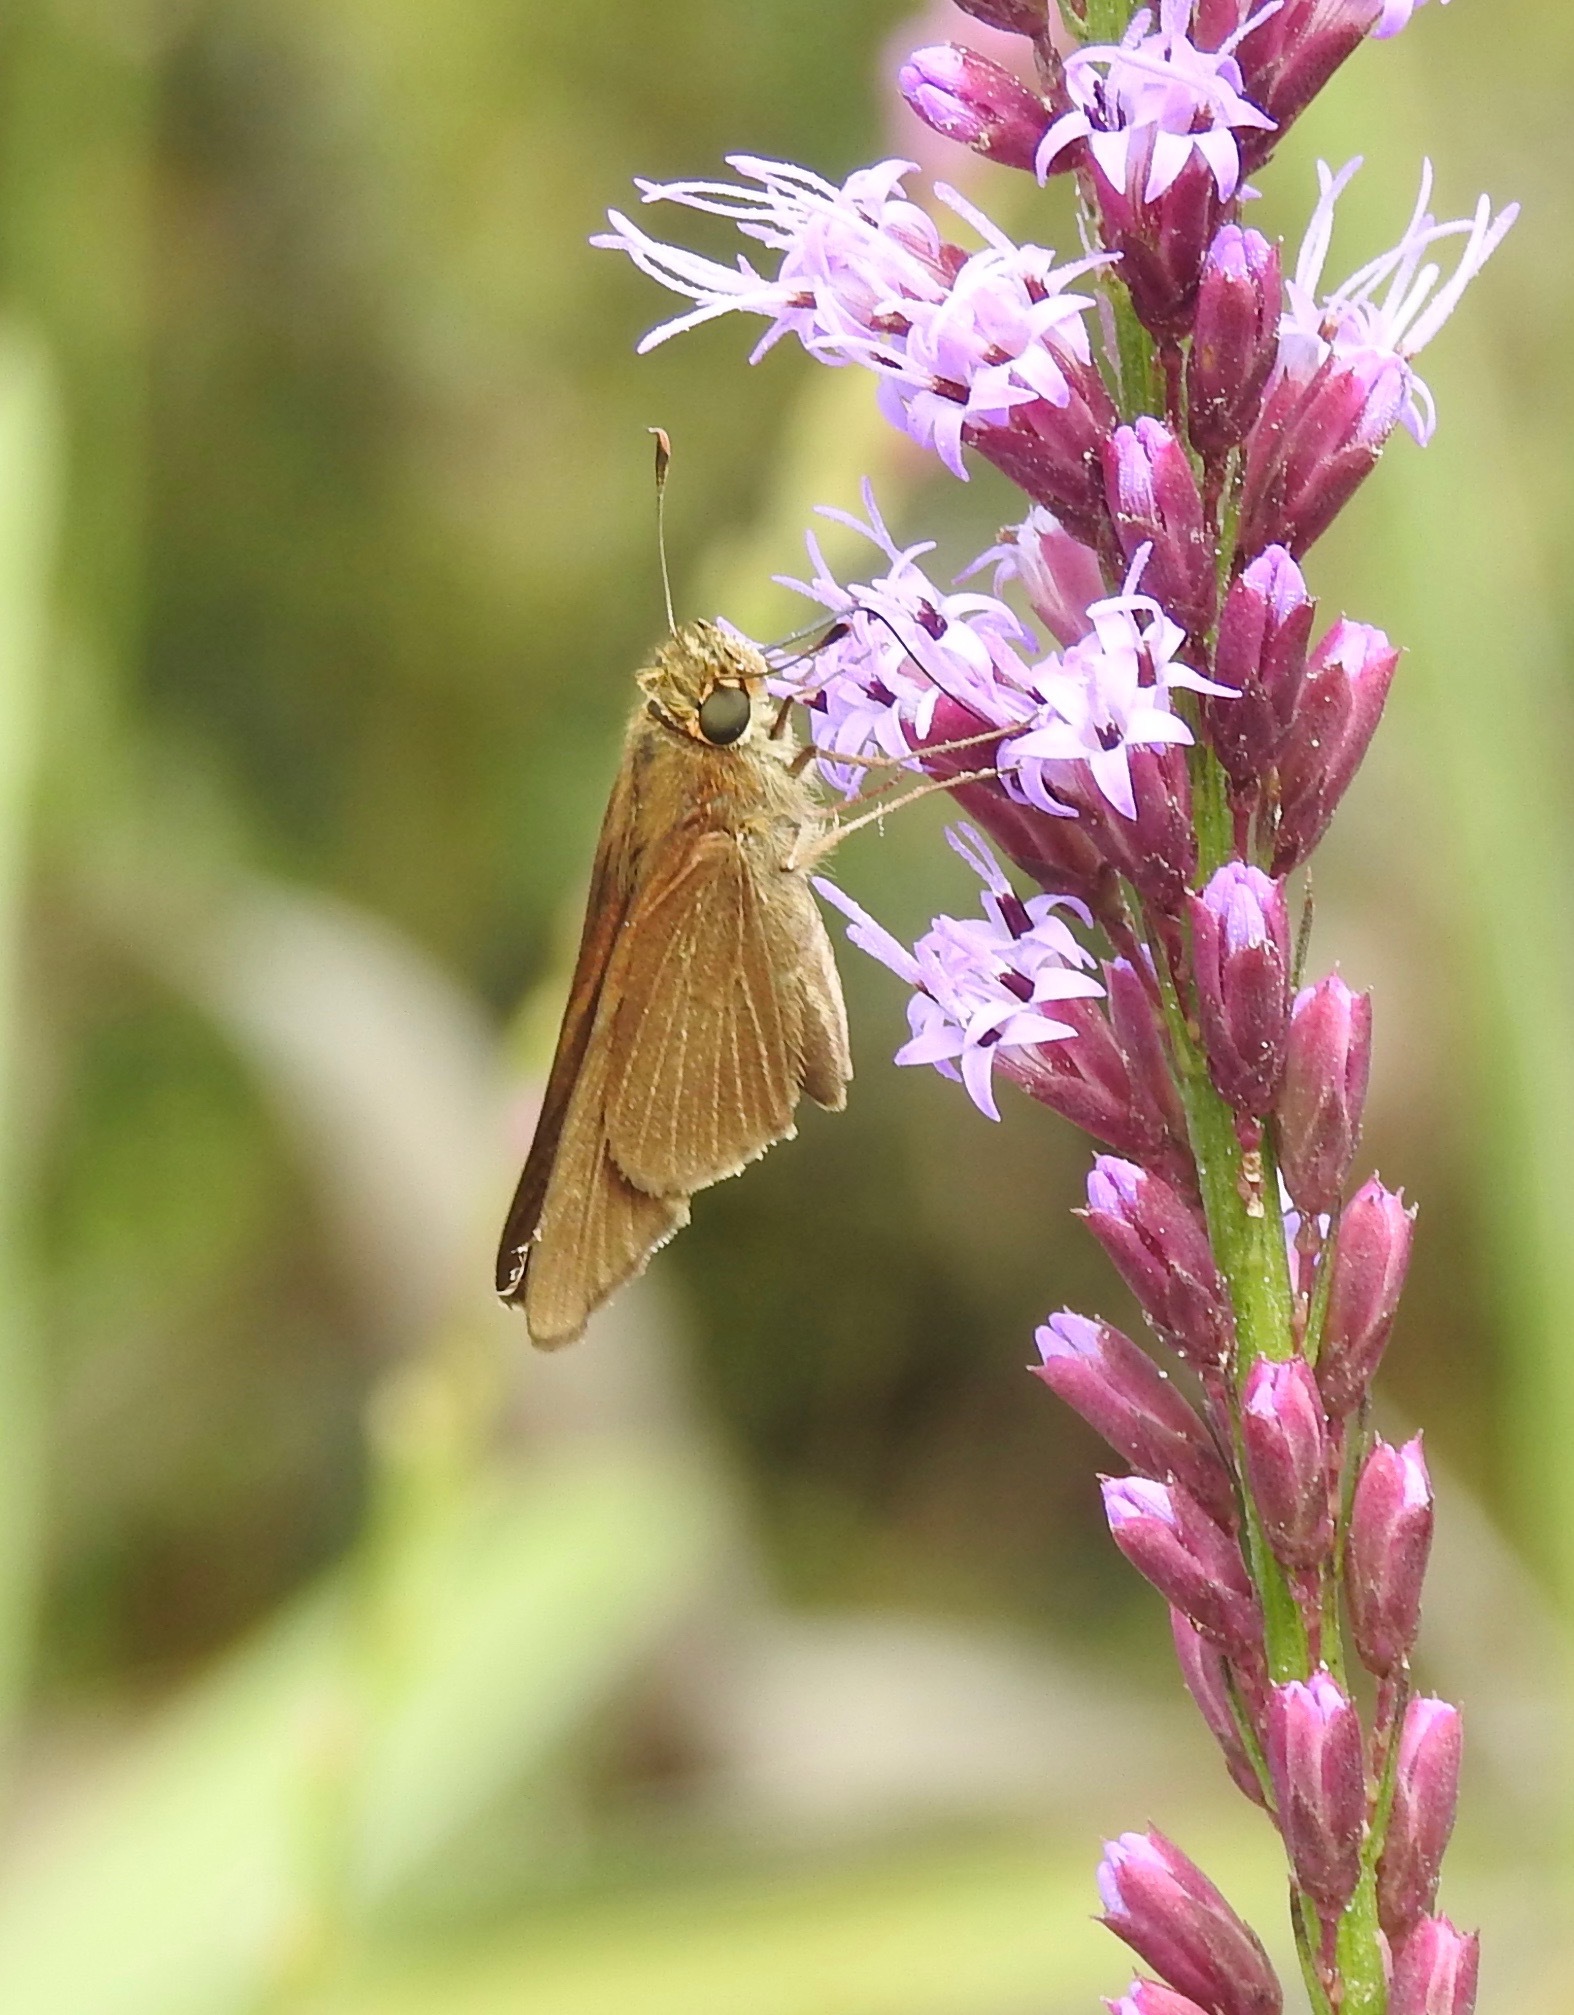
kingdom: Animalia
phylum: Arthropoda
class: Insecta
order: Lepidoptera
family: Hesperiidae
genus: Panoquina
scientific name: Panoquina ocola
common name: Ocola skipper
